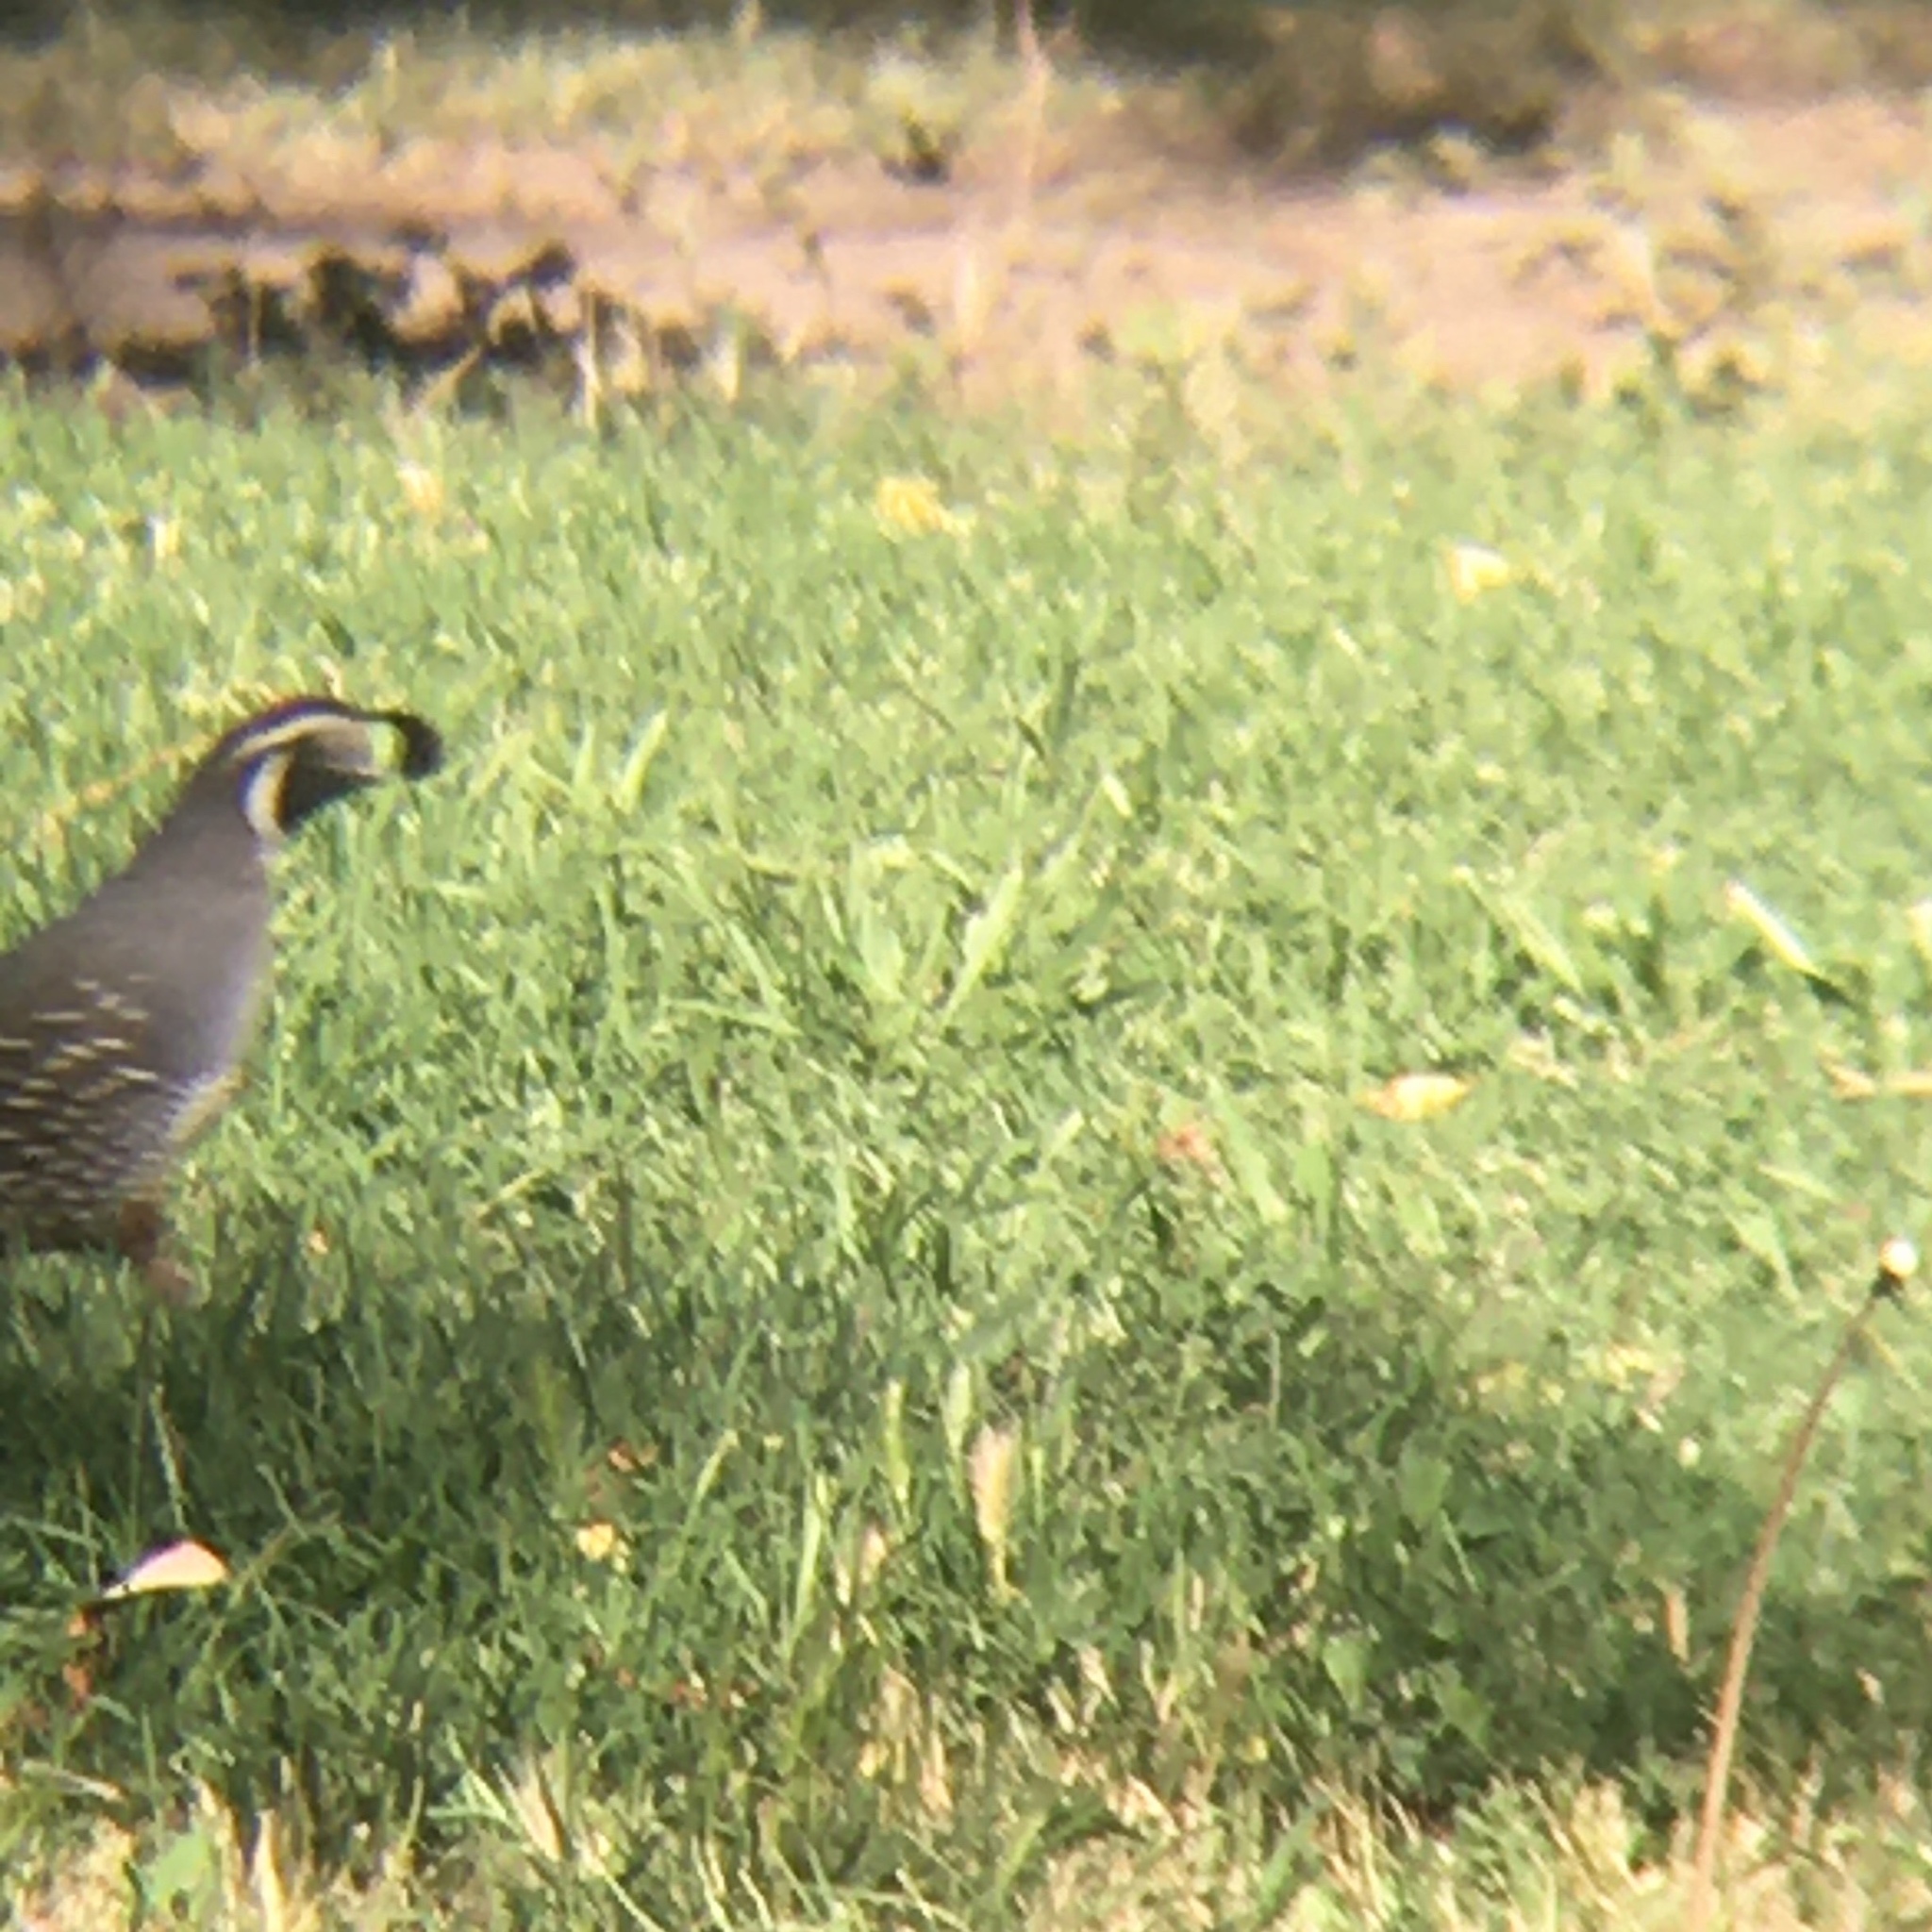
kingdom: Animalia
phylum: Chordata
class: Aves
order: Galliformes
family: Odontophoridae
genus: Callipepla
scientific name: Callipepla californica
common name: California quail
